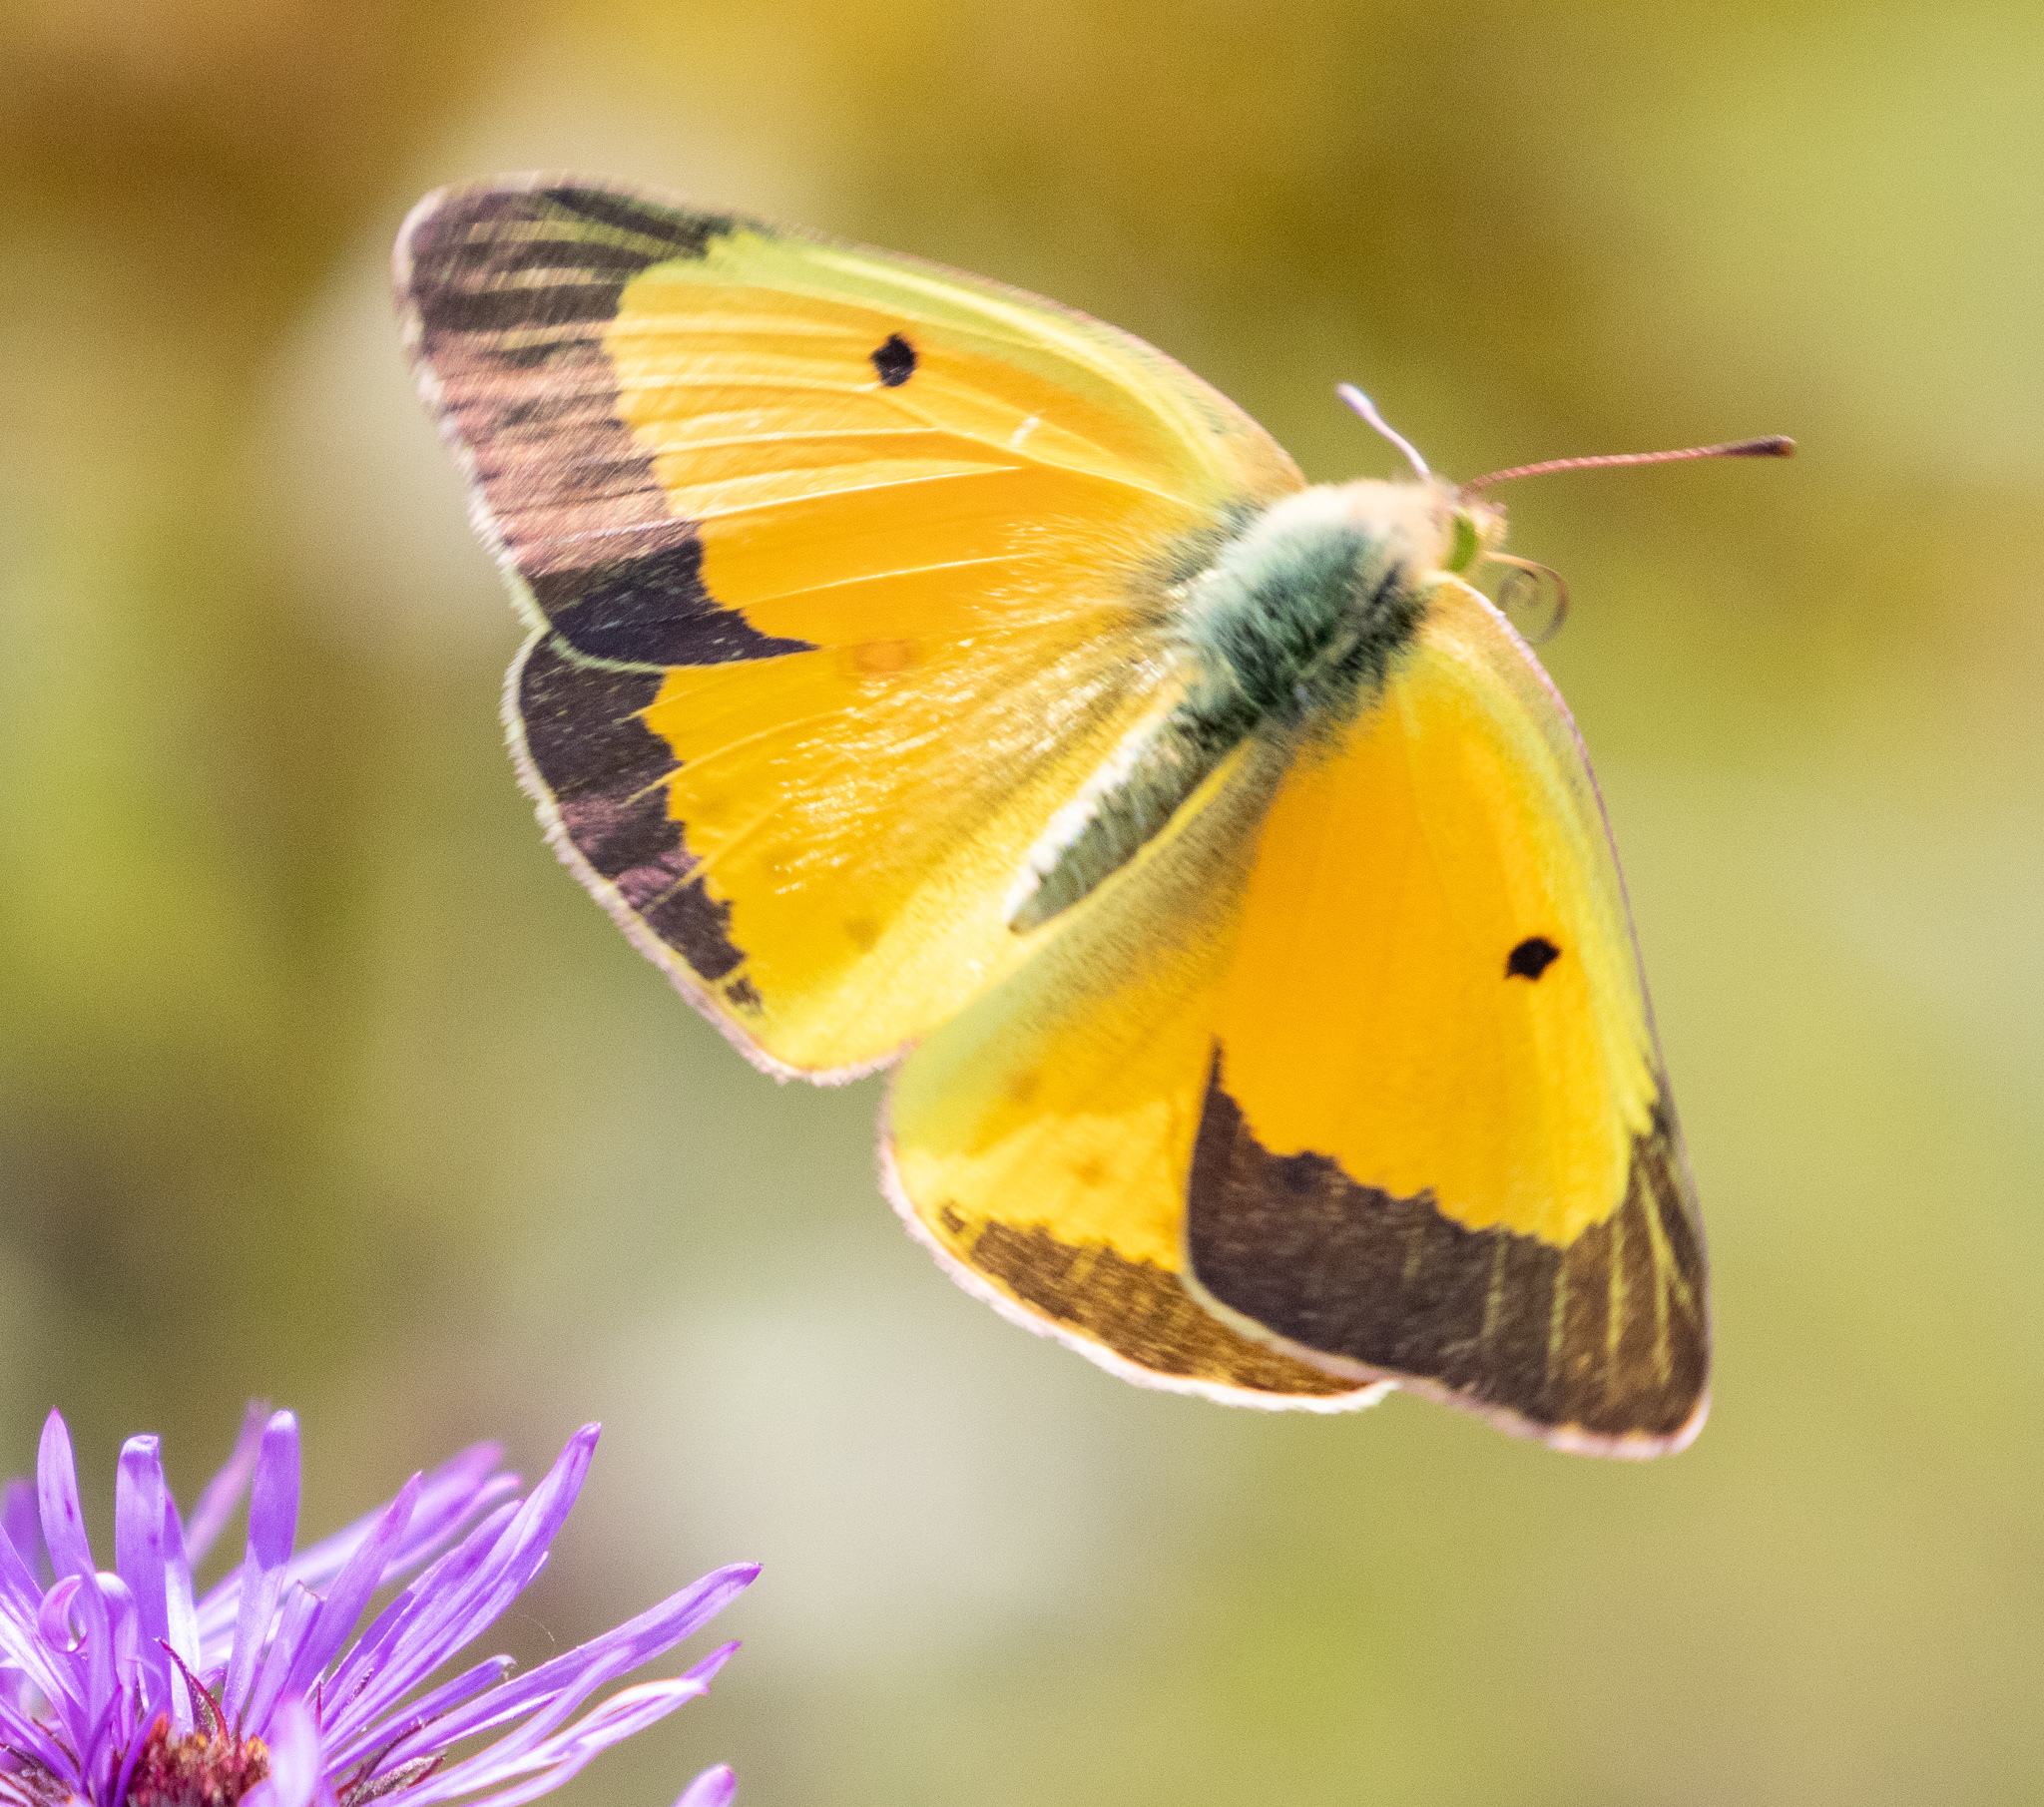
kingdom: Animalia
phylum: Arthropoda
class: Insecta
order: Lepidoptera
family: Pieridae
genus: Colias
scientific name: Colias eurytheme
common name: Alfalfa butterfly
